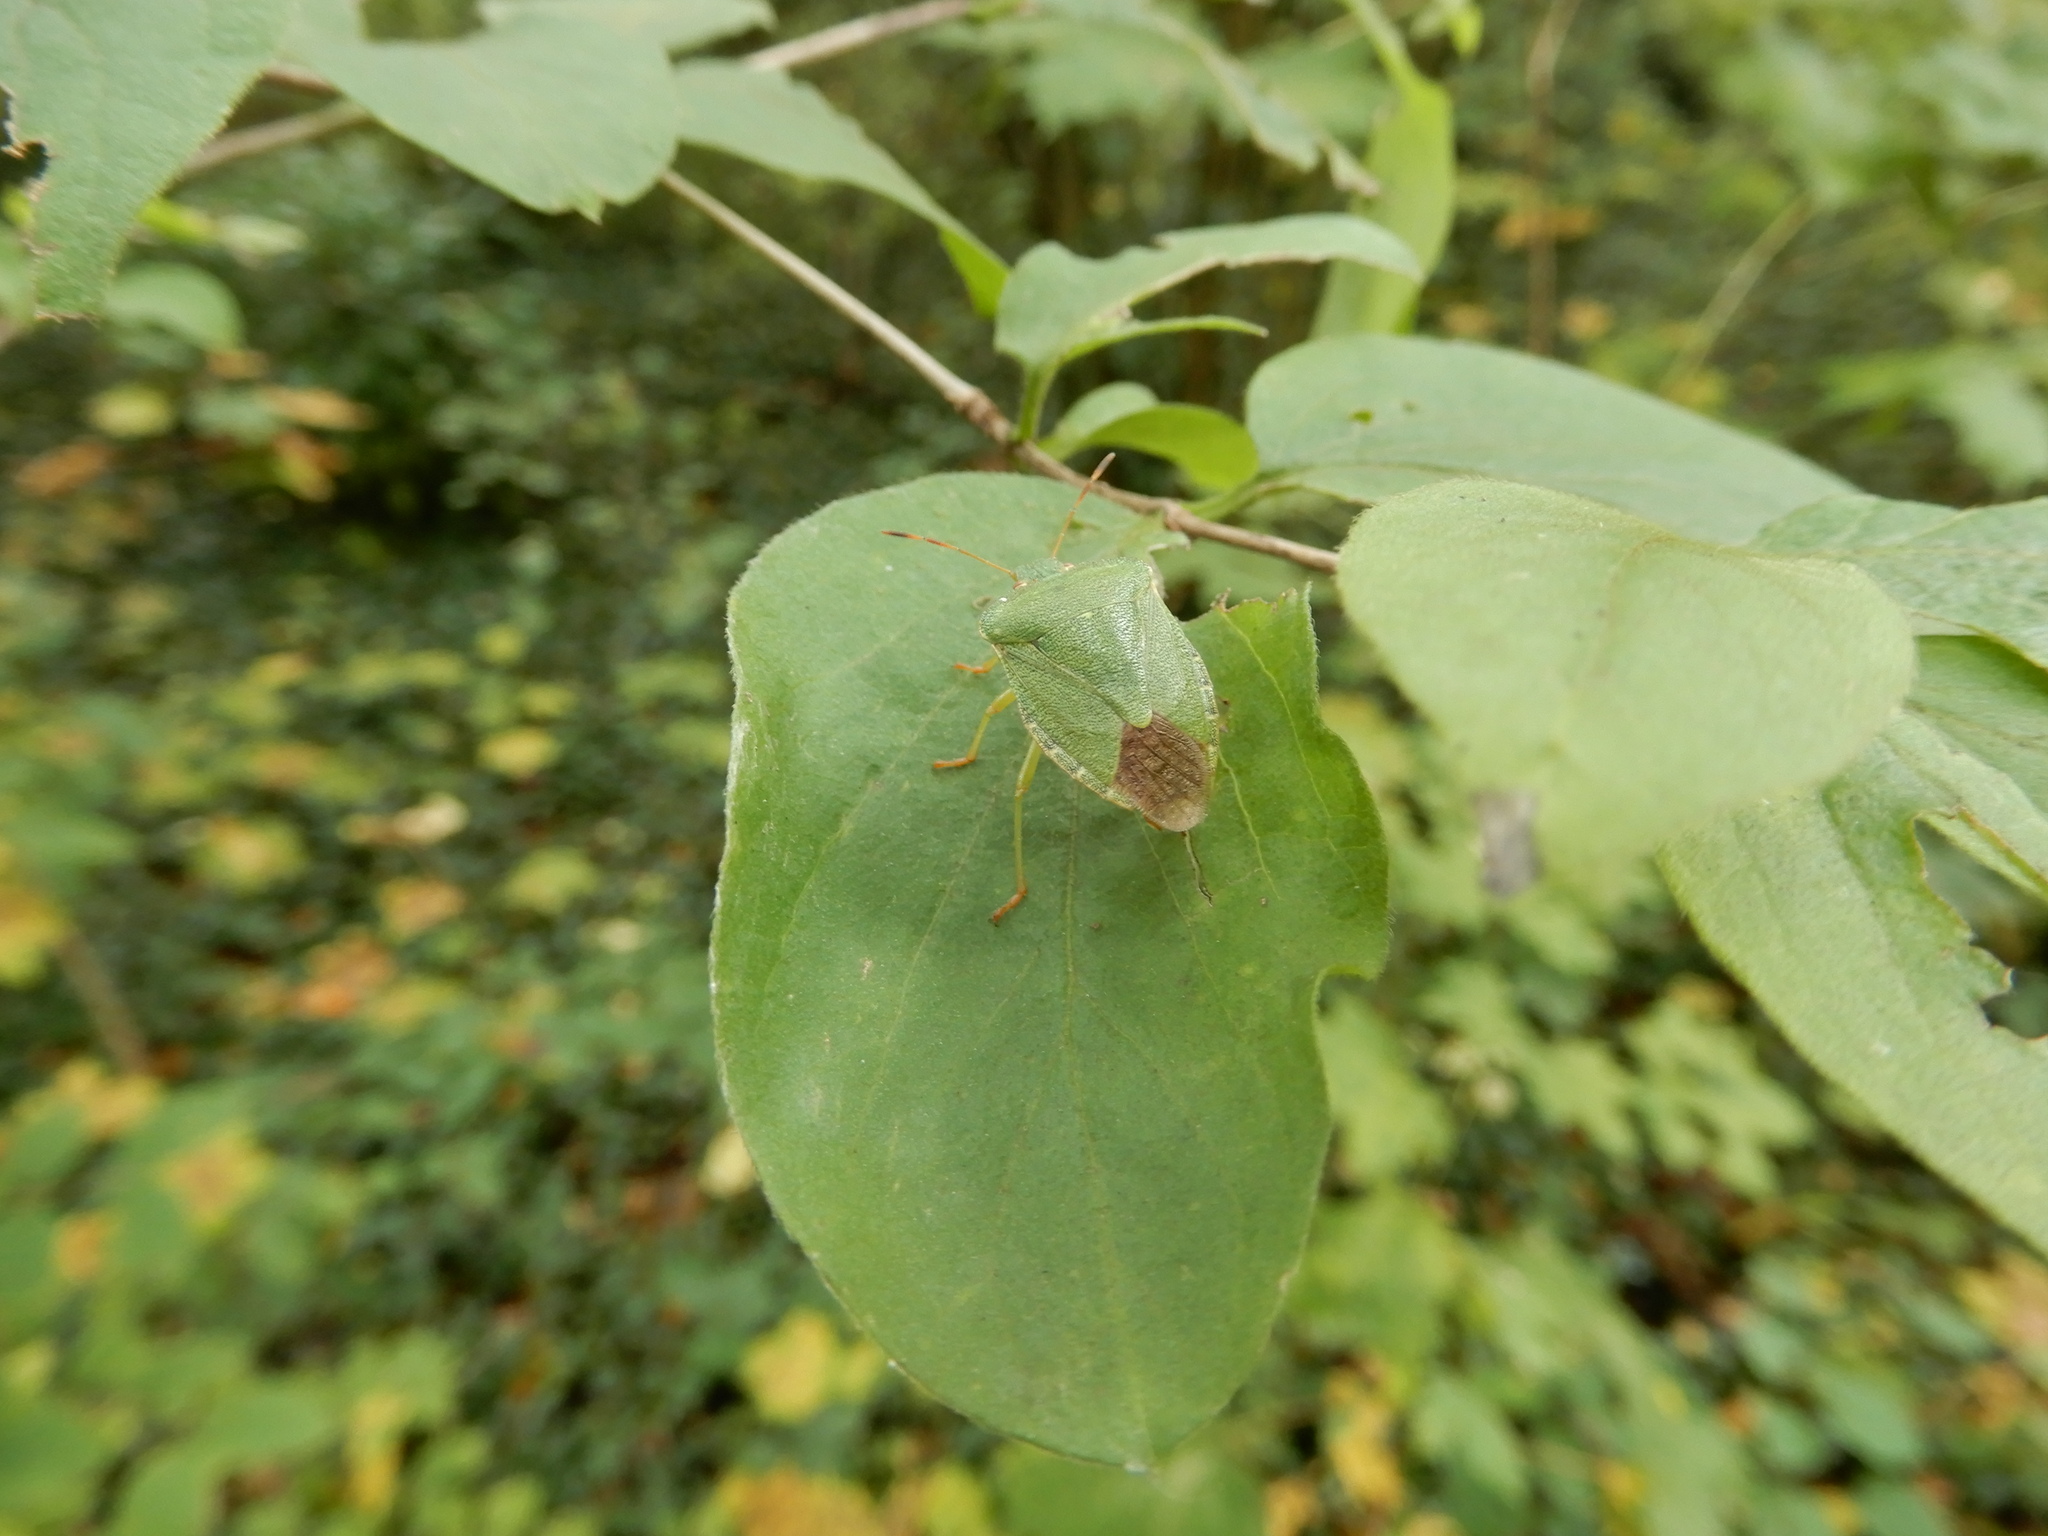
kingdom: Animalia
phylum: Arthropoda
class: Insecta
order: Hemiptera
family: Pentatomidae
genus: Palomena
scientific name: Palomena prasina
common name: Green shieldbug
